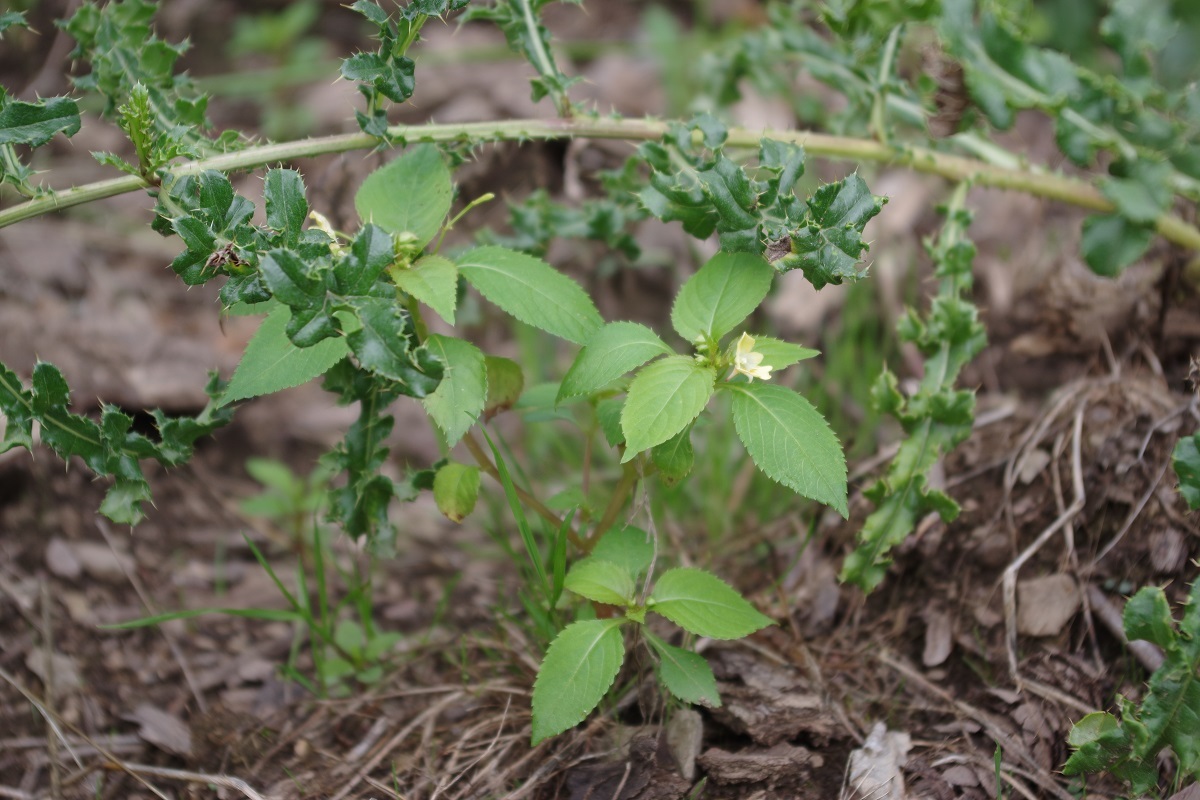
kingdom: Plantae
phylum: Tracheophyta
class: Magnoliopsida
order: Ericales
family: Balsaminaceae
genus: Impatiens
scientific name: Impatiens parviflora
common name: Small balsam
